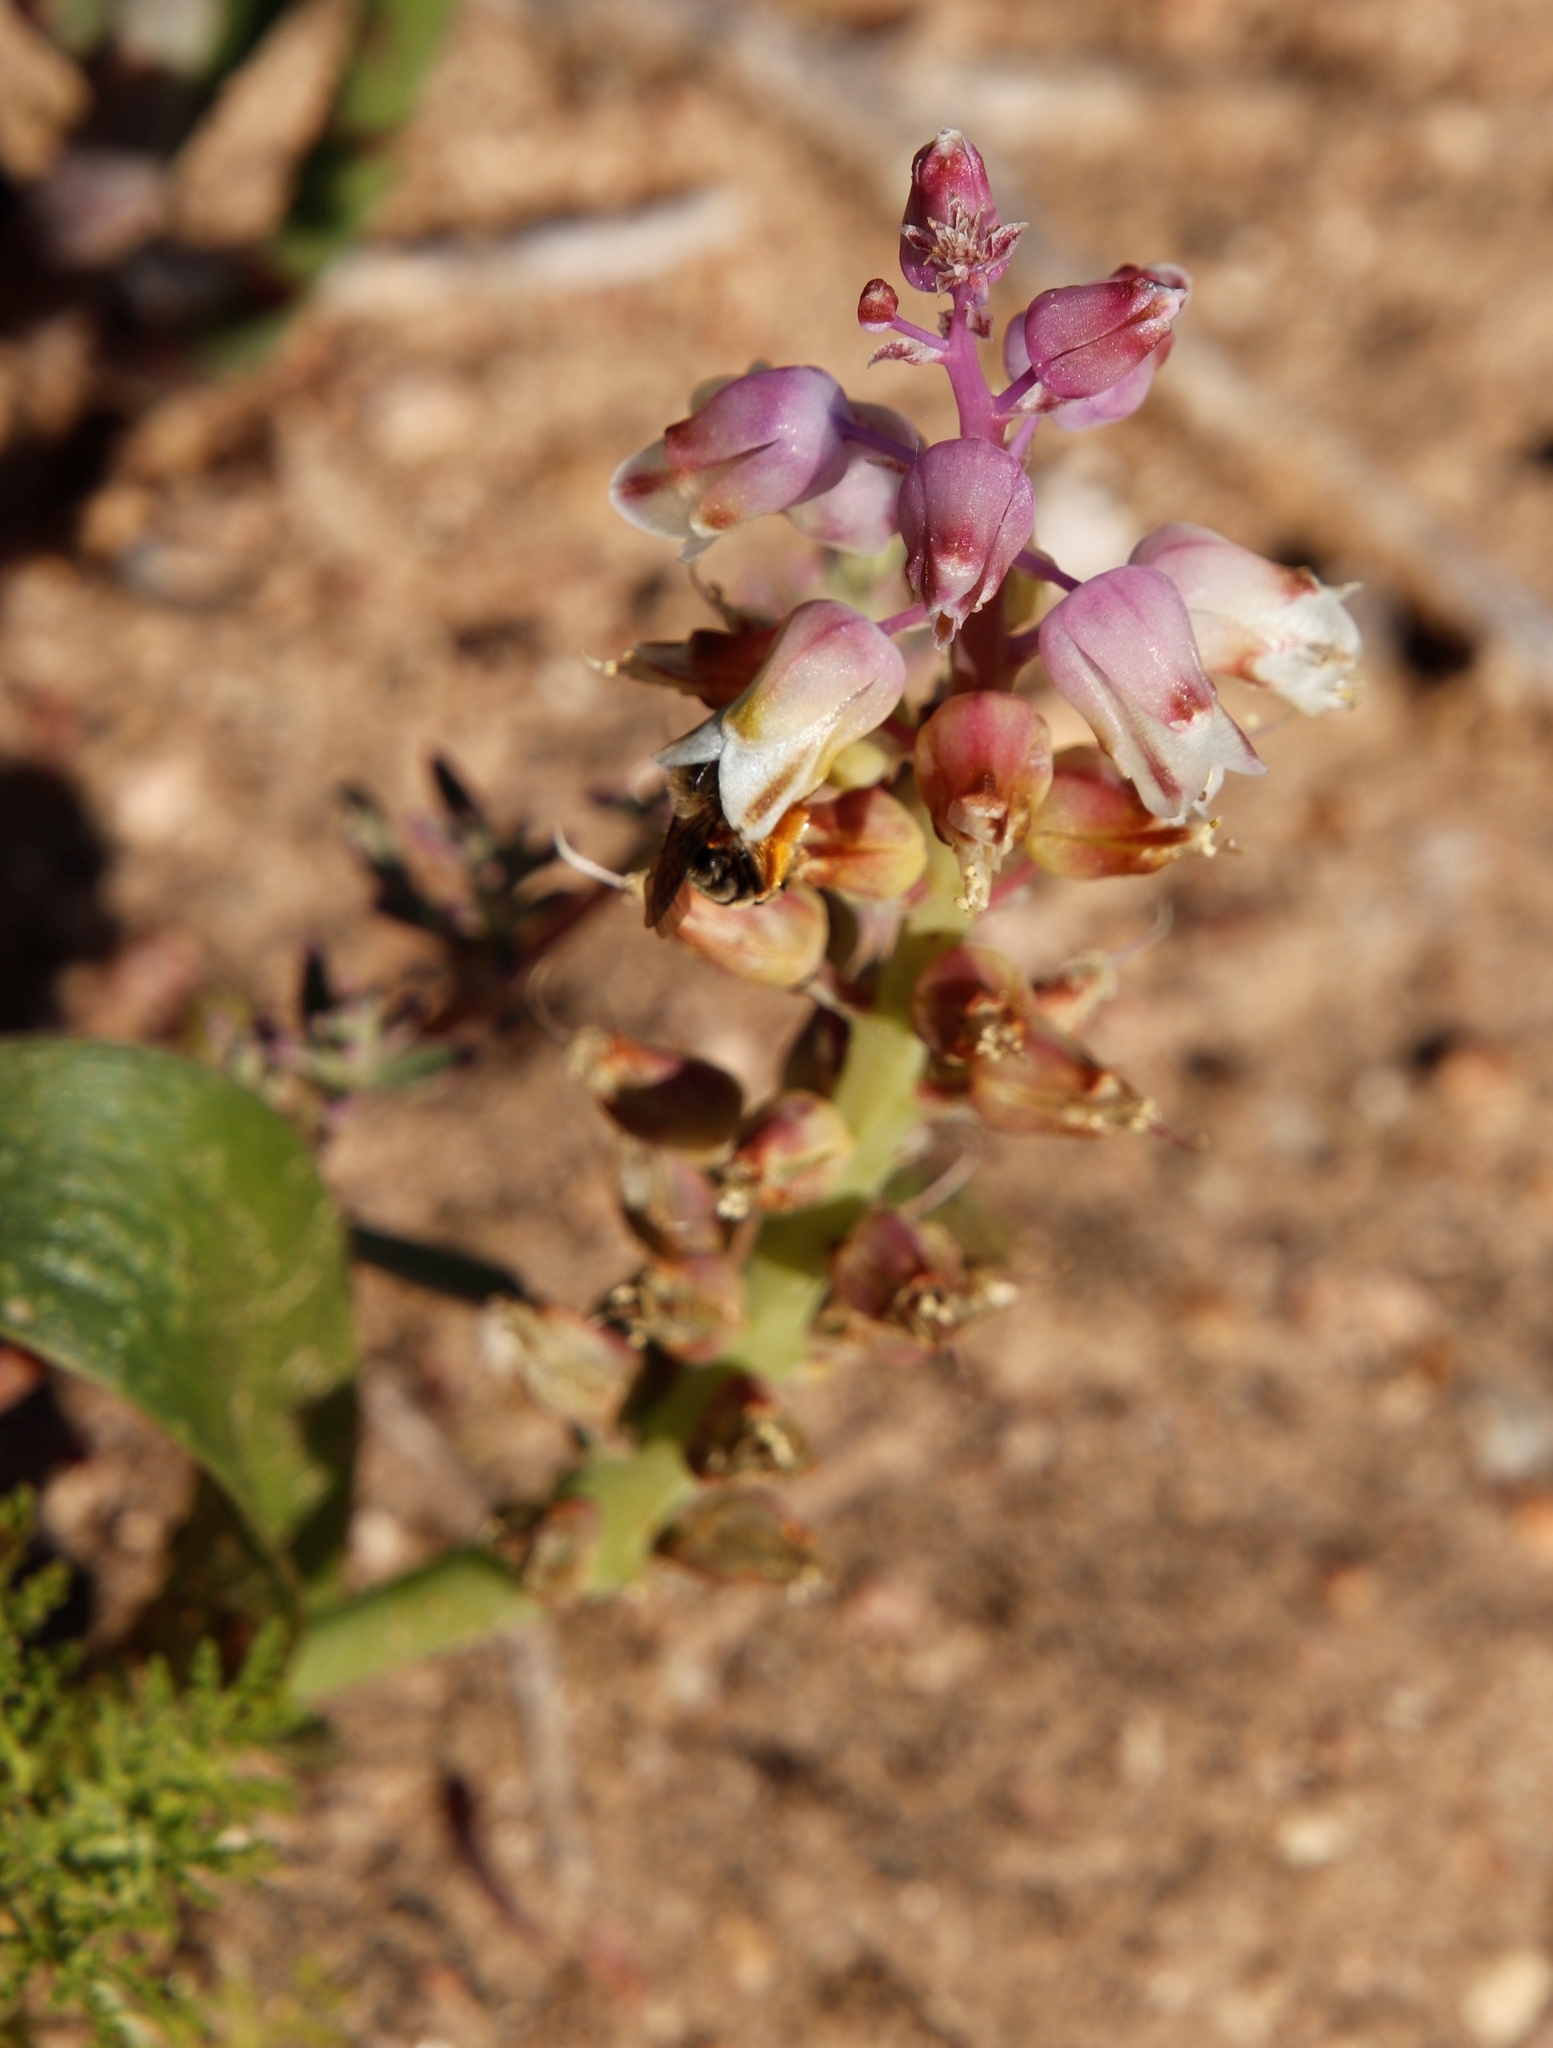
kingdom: Plantae
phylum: Tracheophyta
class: Liliopsida
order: Asparagales
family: Asparagaceae
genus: Lachenalia
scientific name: Lachenalia pallida
